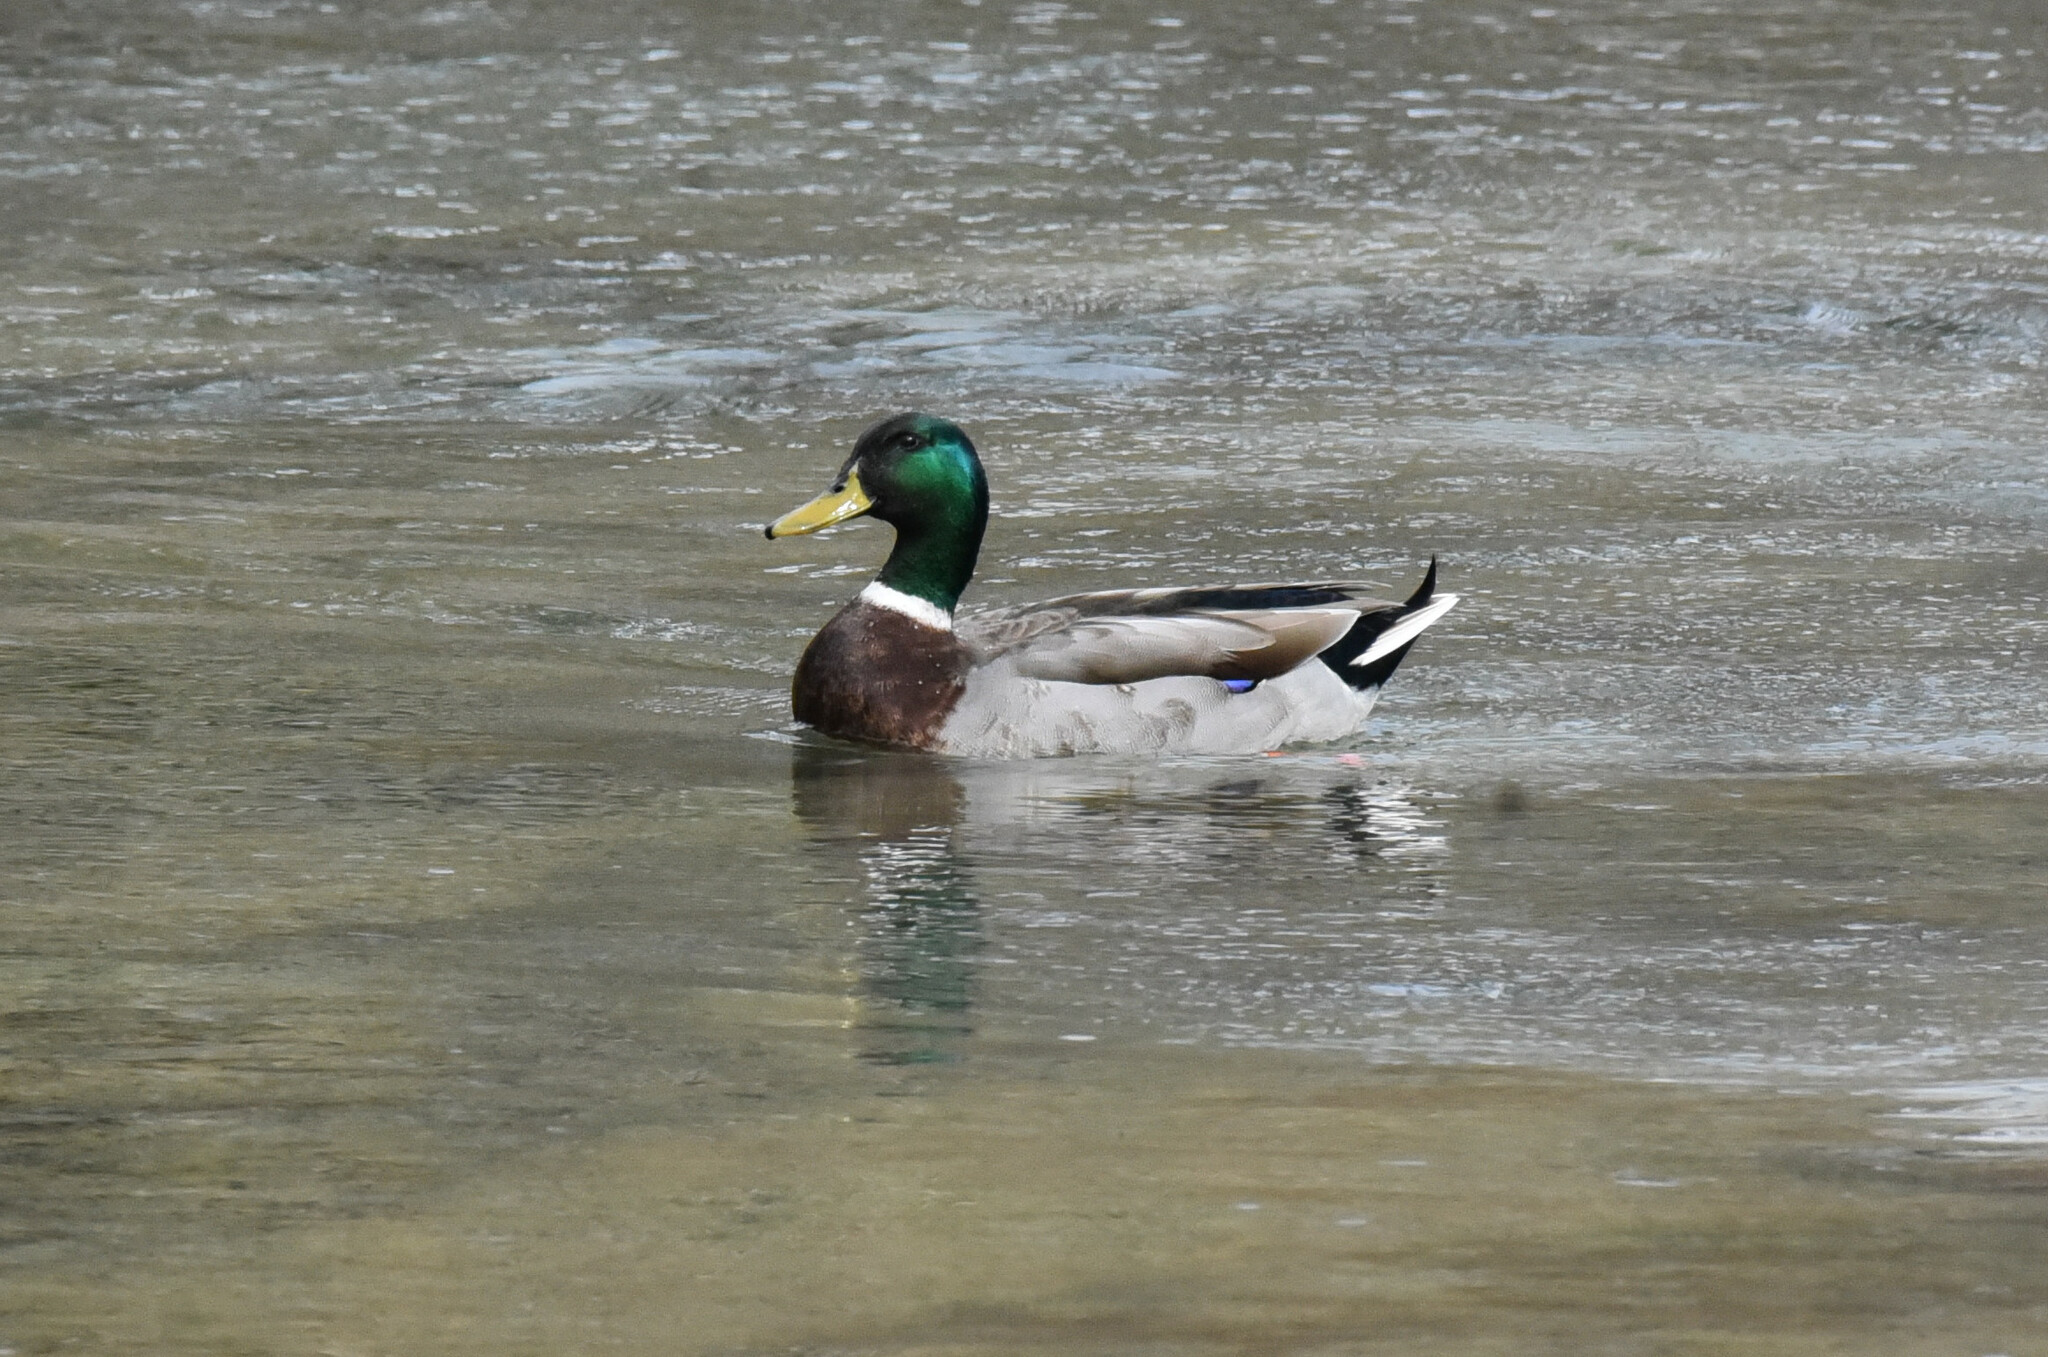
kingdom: Animalia
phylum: Chordata
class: Aves
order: Anseriformes
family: Anatidae
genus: Anas
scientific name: Anas platyrhynchos
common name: Mallard
